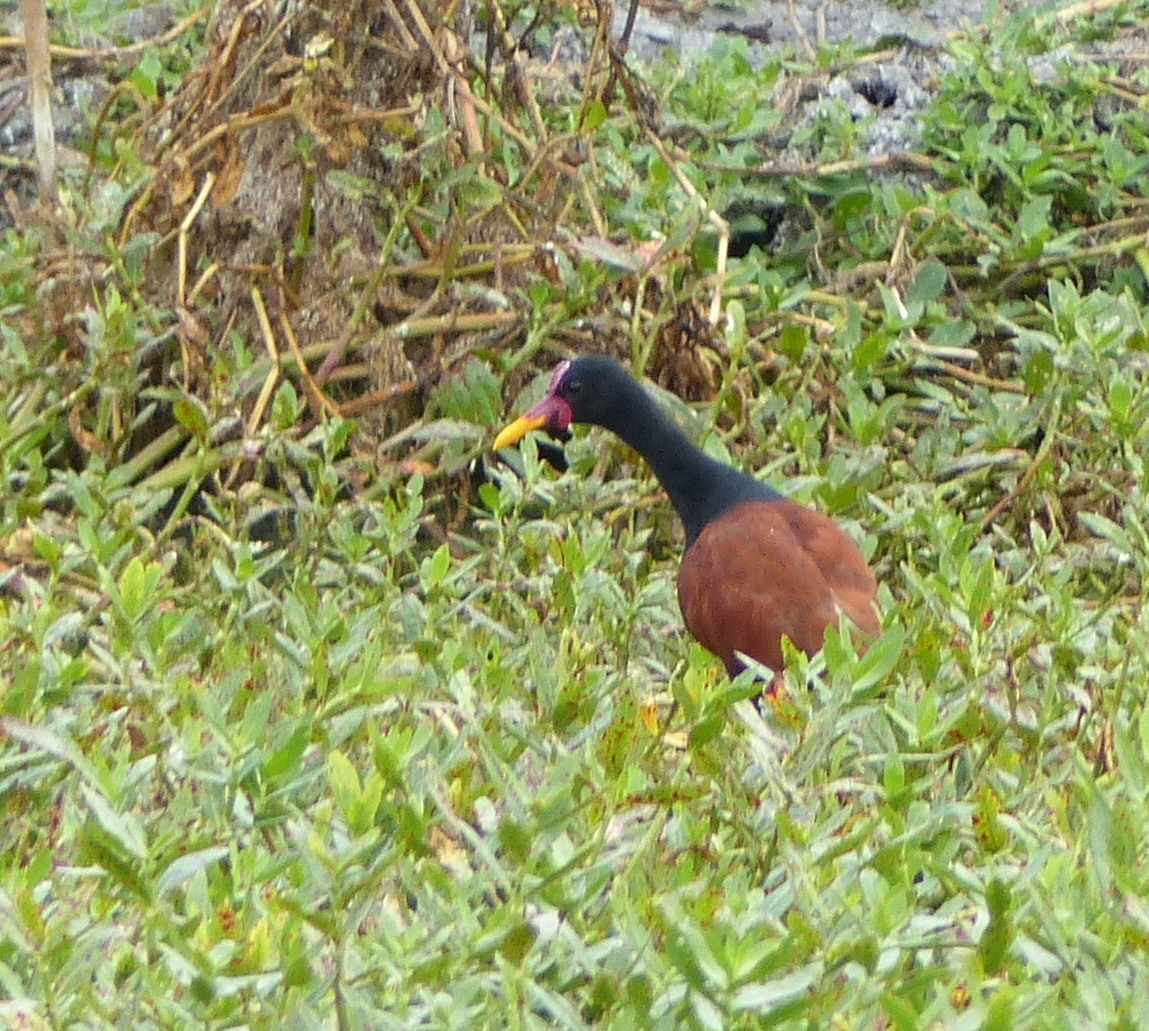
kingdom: Animalia
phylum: Chordata
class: Aves
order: Charadriiformes
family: Jacanidae
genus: Jacana
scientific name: Jacana jacana
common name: Wattled jacana
